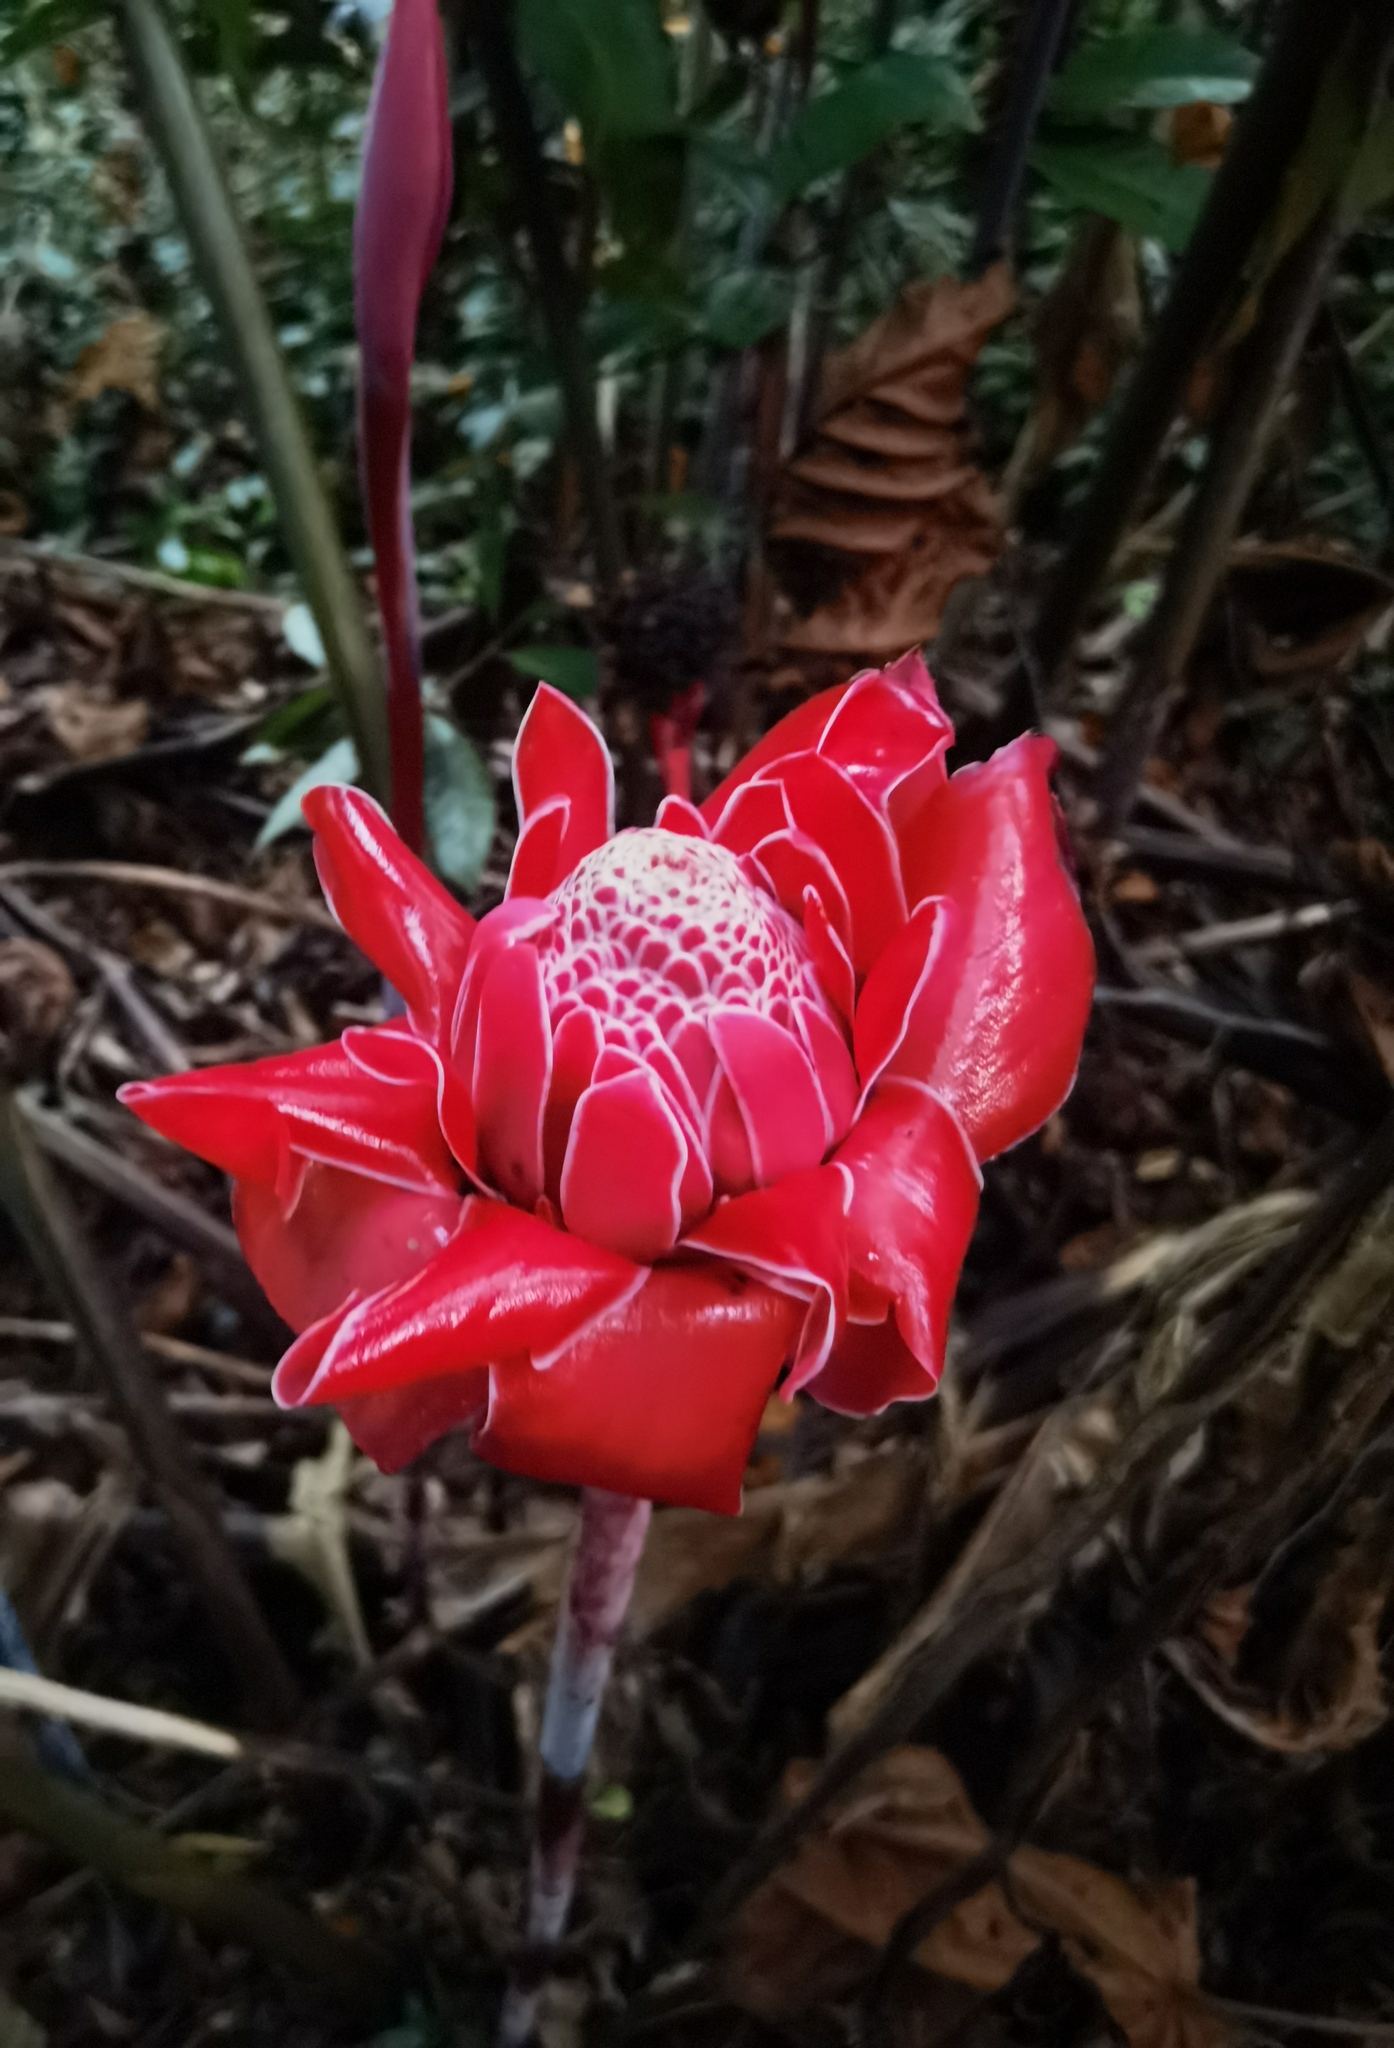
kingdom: Plantae
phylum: Tracheophyta
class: Liliopsida
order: Zingiberales
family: Zingiberaceae
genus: Etlingera
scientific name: Etlingera elatior
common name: Philippine waxflower
